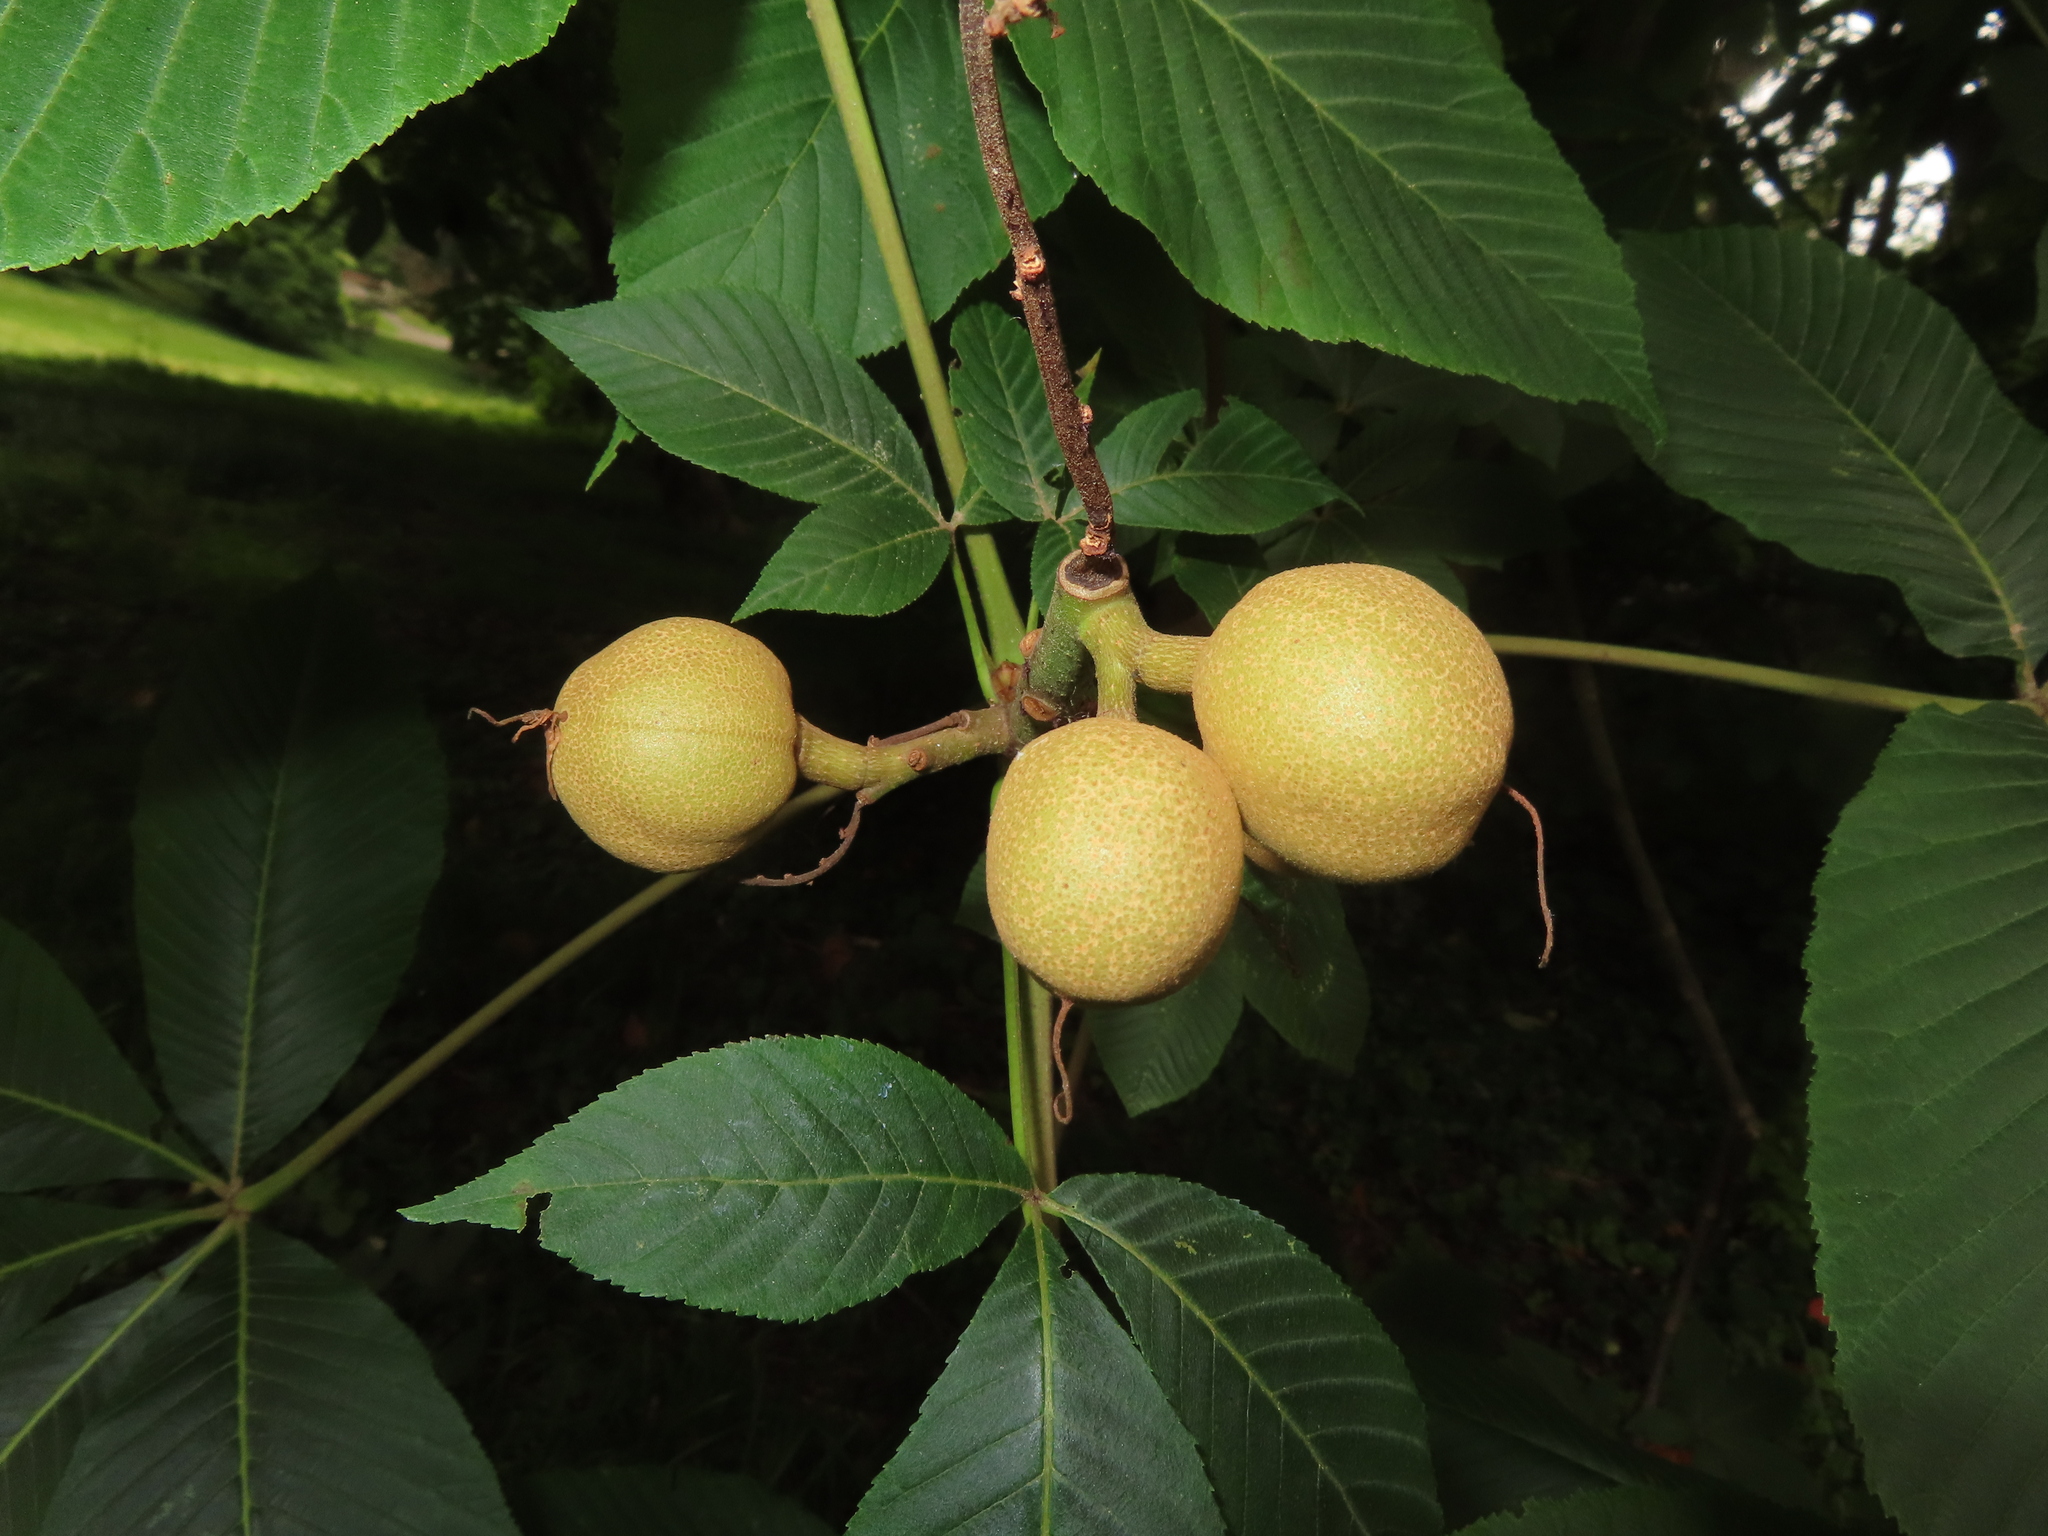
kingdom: Plantae
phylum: Tracheophyta
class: Magnoliopsida
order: Sapindales
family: Sapindaceae
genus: Aesculus
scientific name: Aesculus flava
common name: Yellow buckeye
